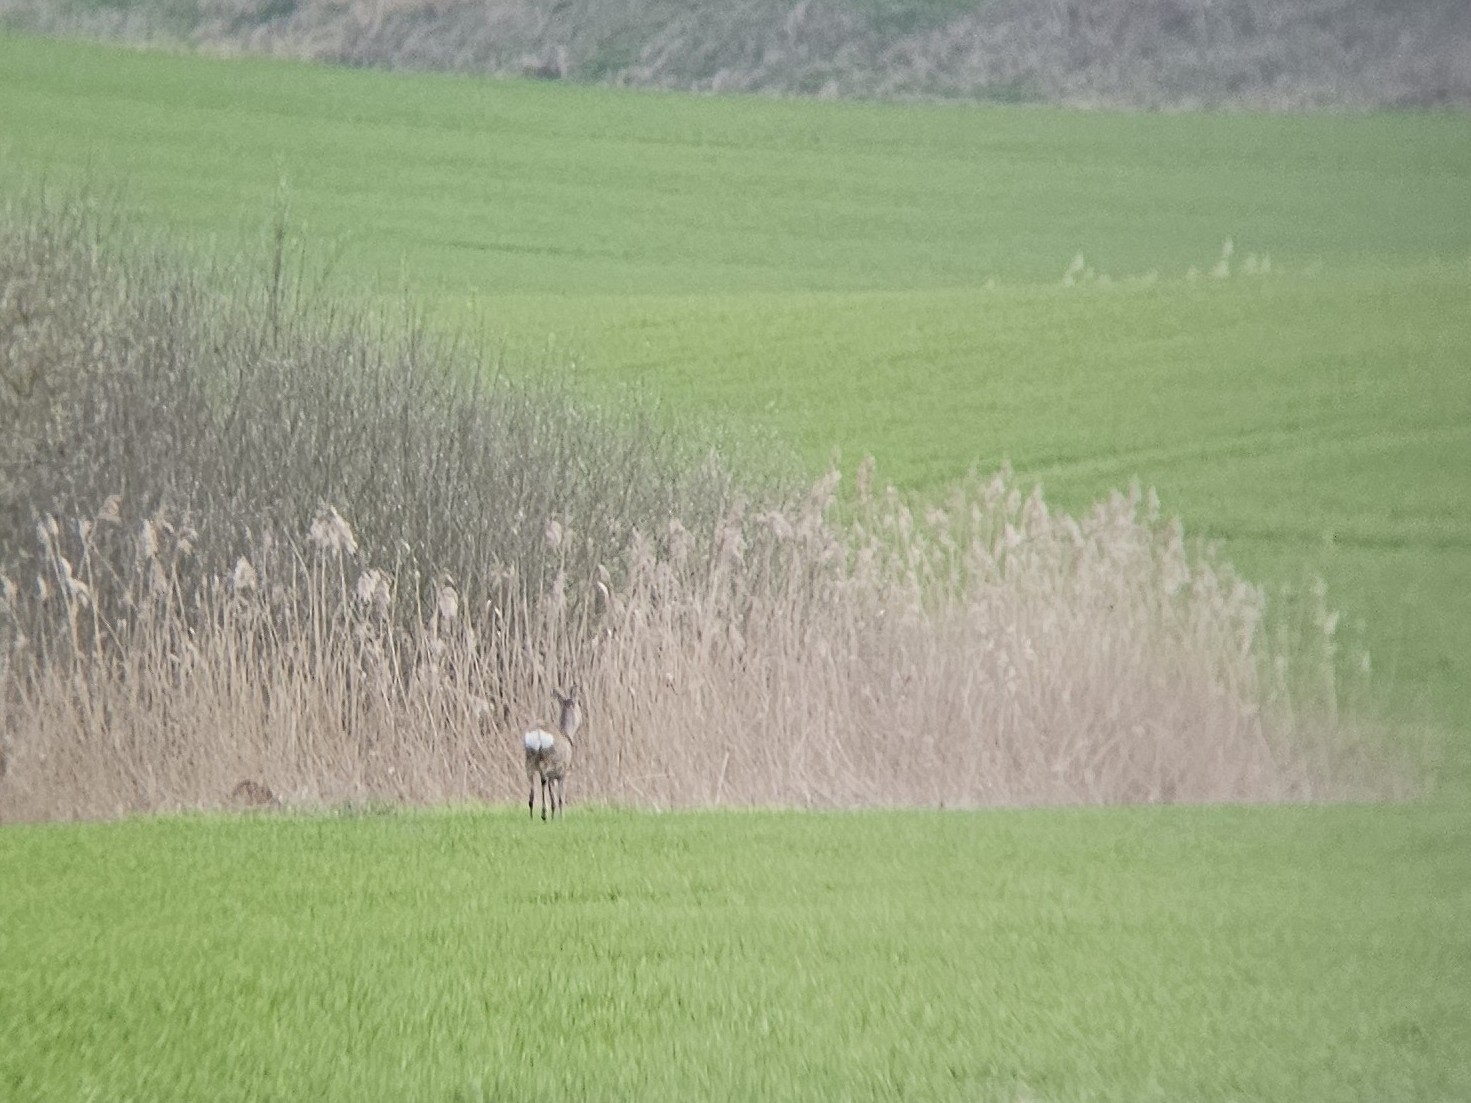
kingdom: Animalia
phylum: Chordata
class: Mammalia
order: Artiodactyla
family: Cervidae
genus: Capreolus
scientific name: Capreolus capreolus
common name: Western roe deer
